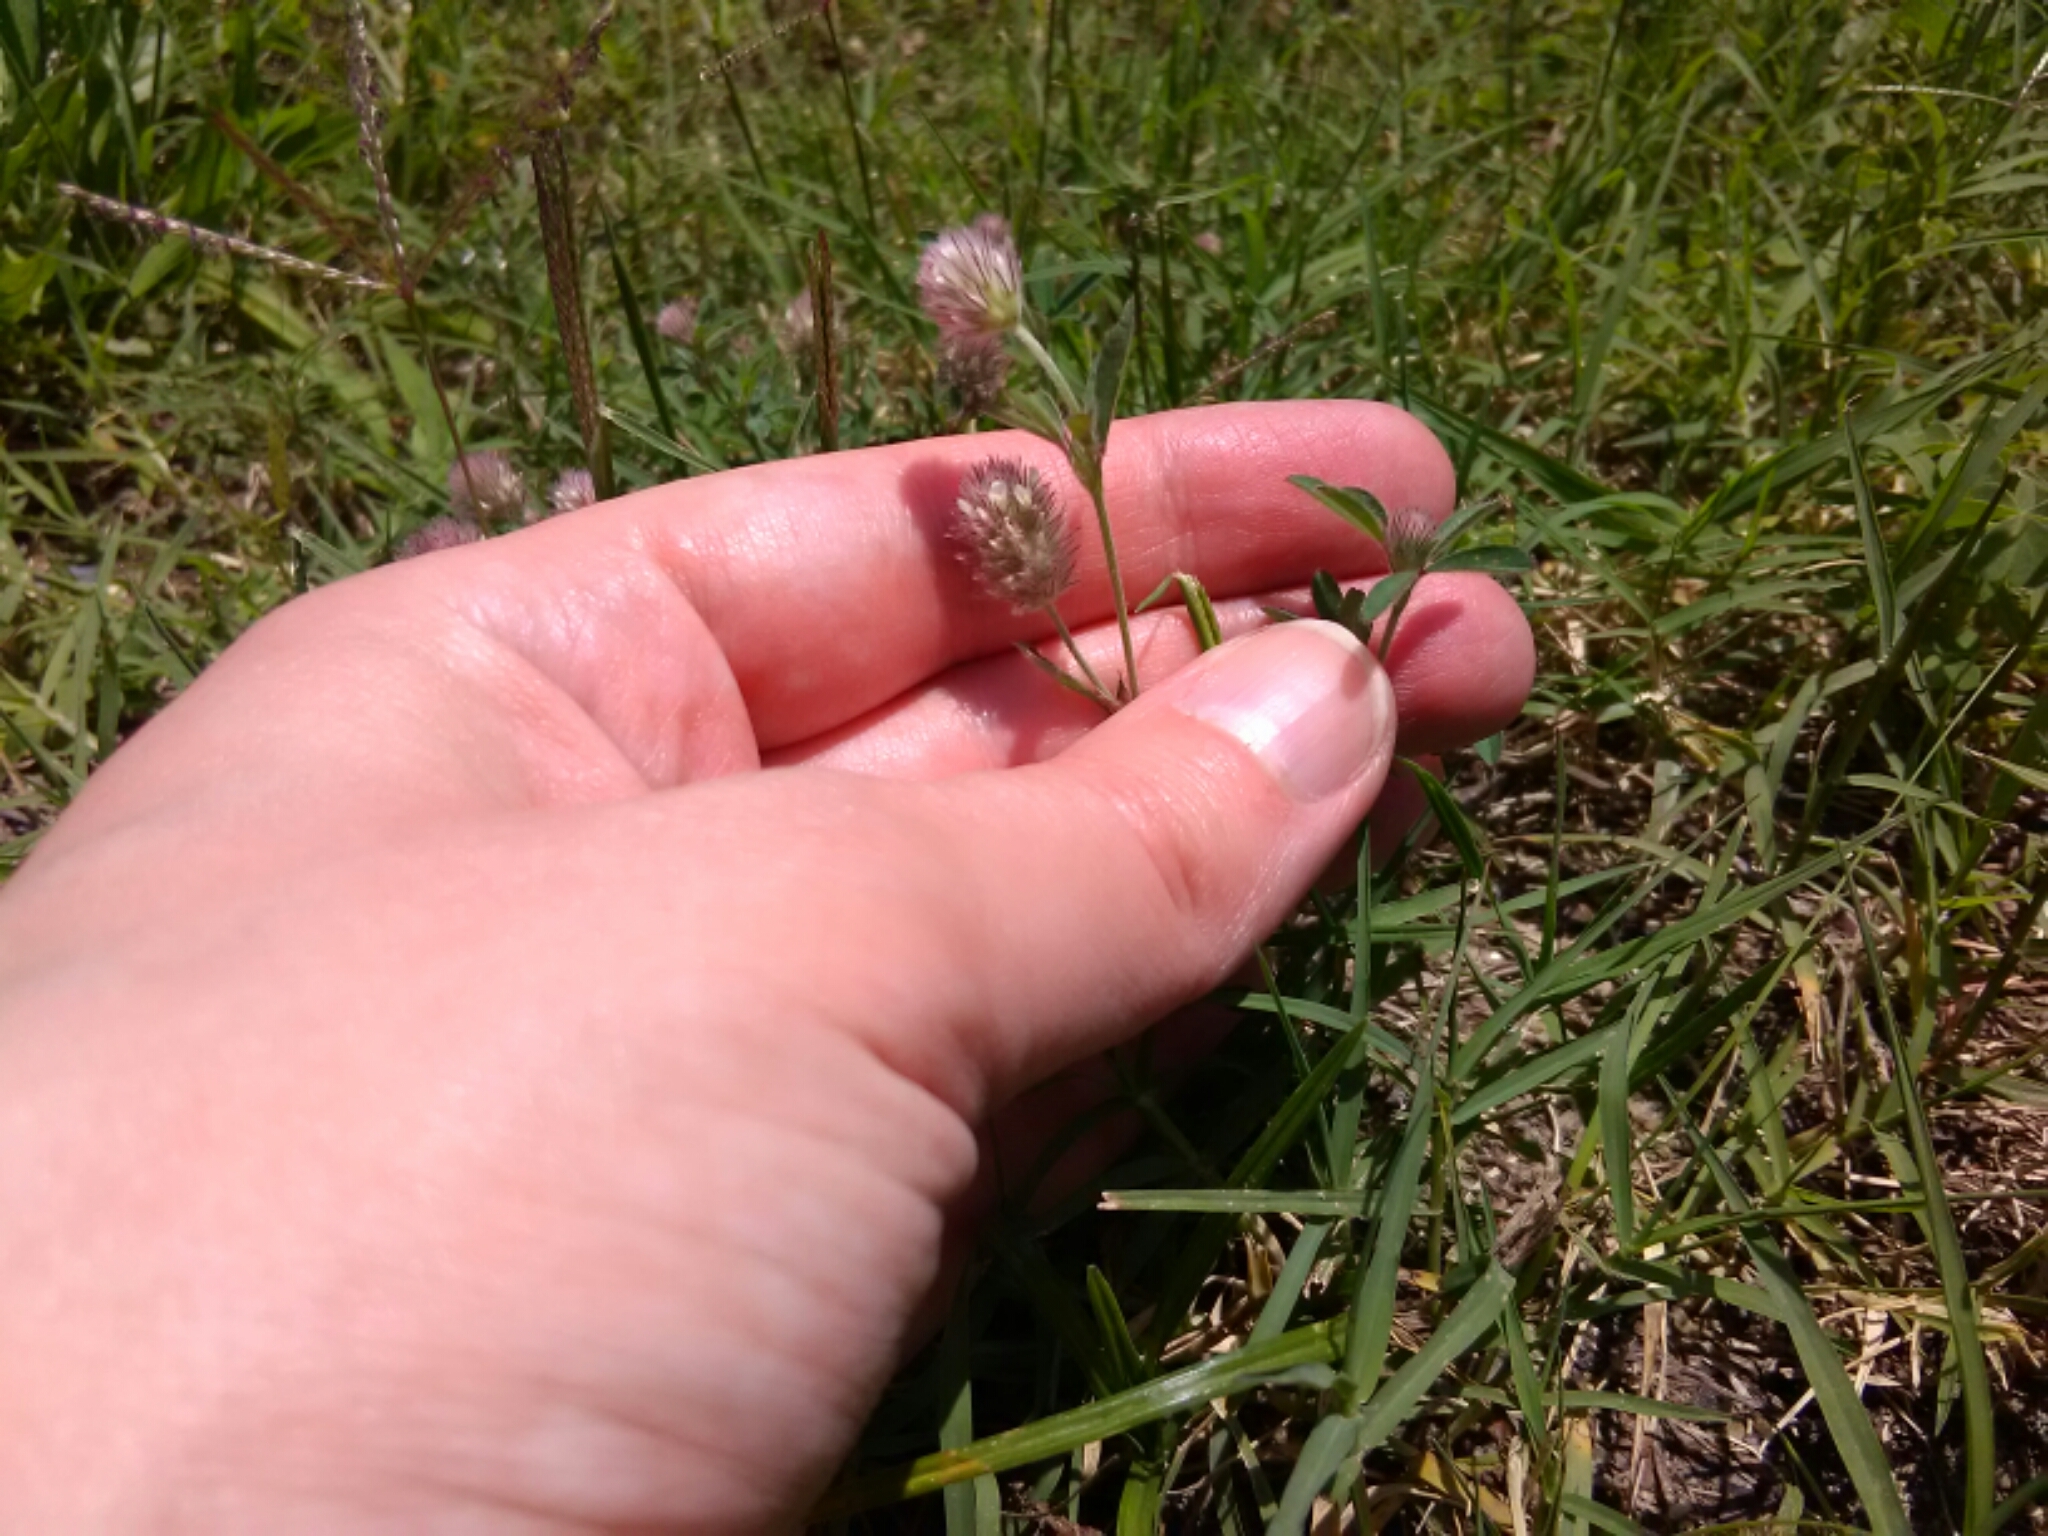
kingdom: Plantae
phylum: Tracheophyta
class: Magnoliopsida
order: Fabales
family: Fabaceae
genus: Trifolium
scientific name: Trifolium arvense
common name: Hare's-foot clover
